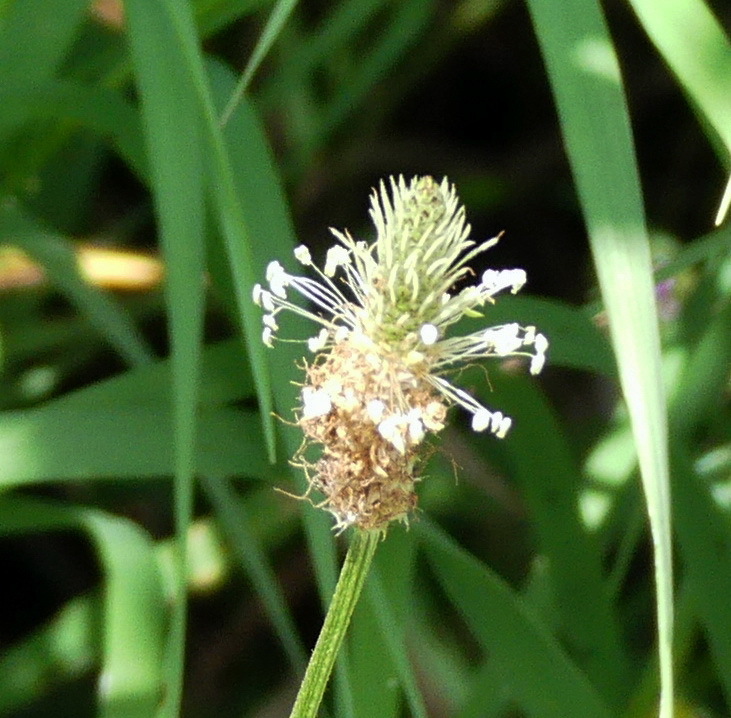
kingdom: Plantae
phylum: Tracheophyta
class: Magnoliopsida
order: Lamiales
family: Plantaginaceae
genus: Plantago
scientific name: Plantago lanceolata
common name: Ribwort plantain
